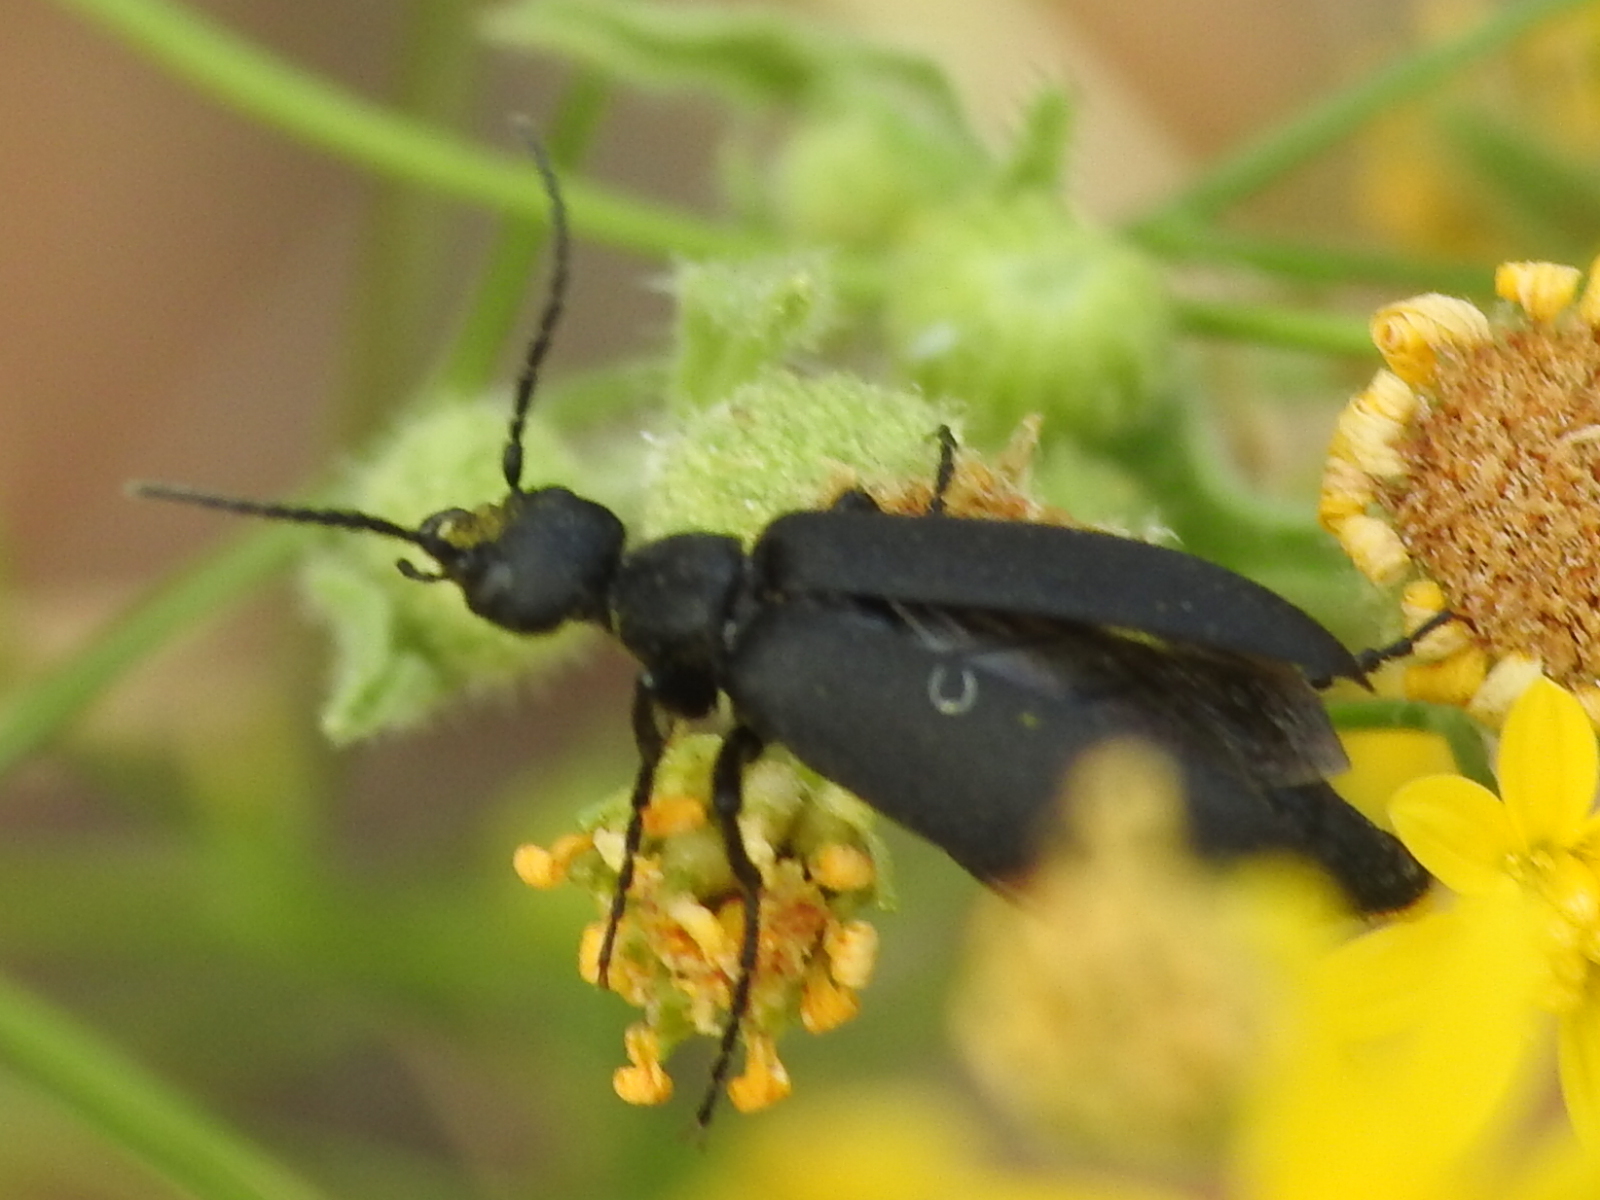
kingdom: Animalia
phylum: Arthropoda
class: Insecta
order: Coleoptera
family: Meloidae
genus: Epicauta
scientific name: Epicauta pensylvanica
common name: Black blister beetle
